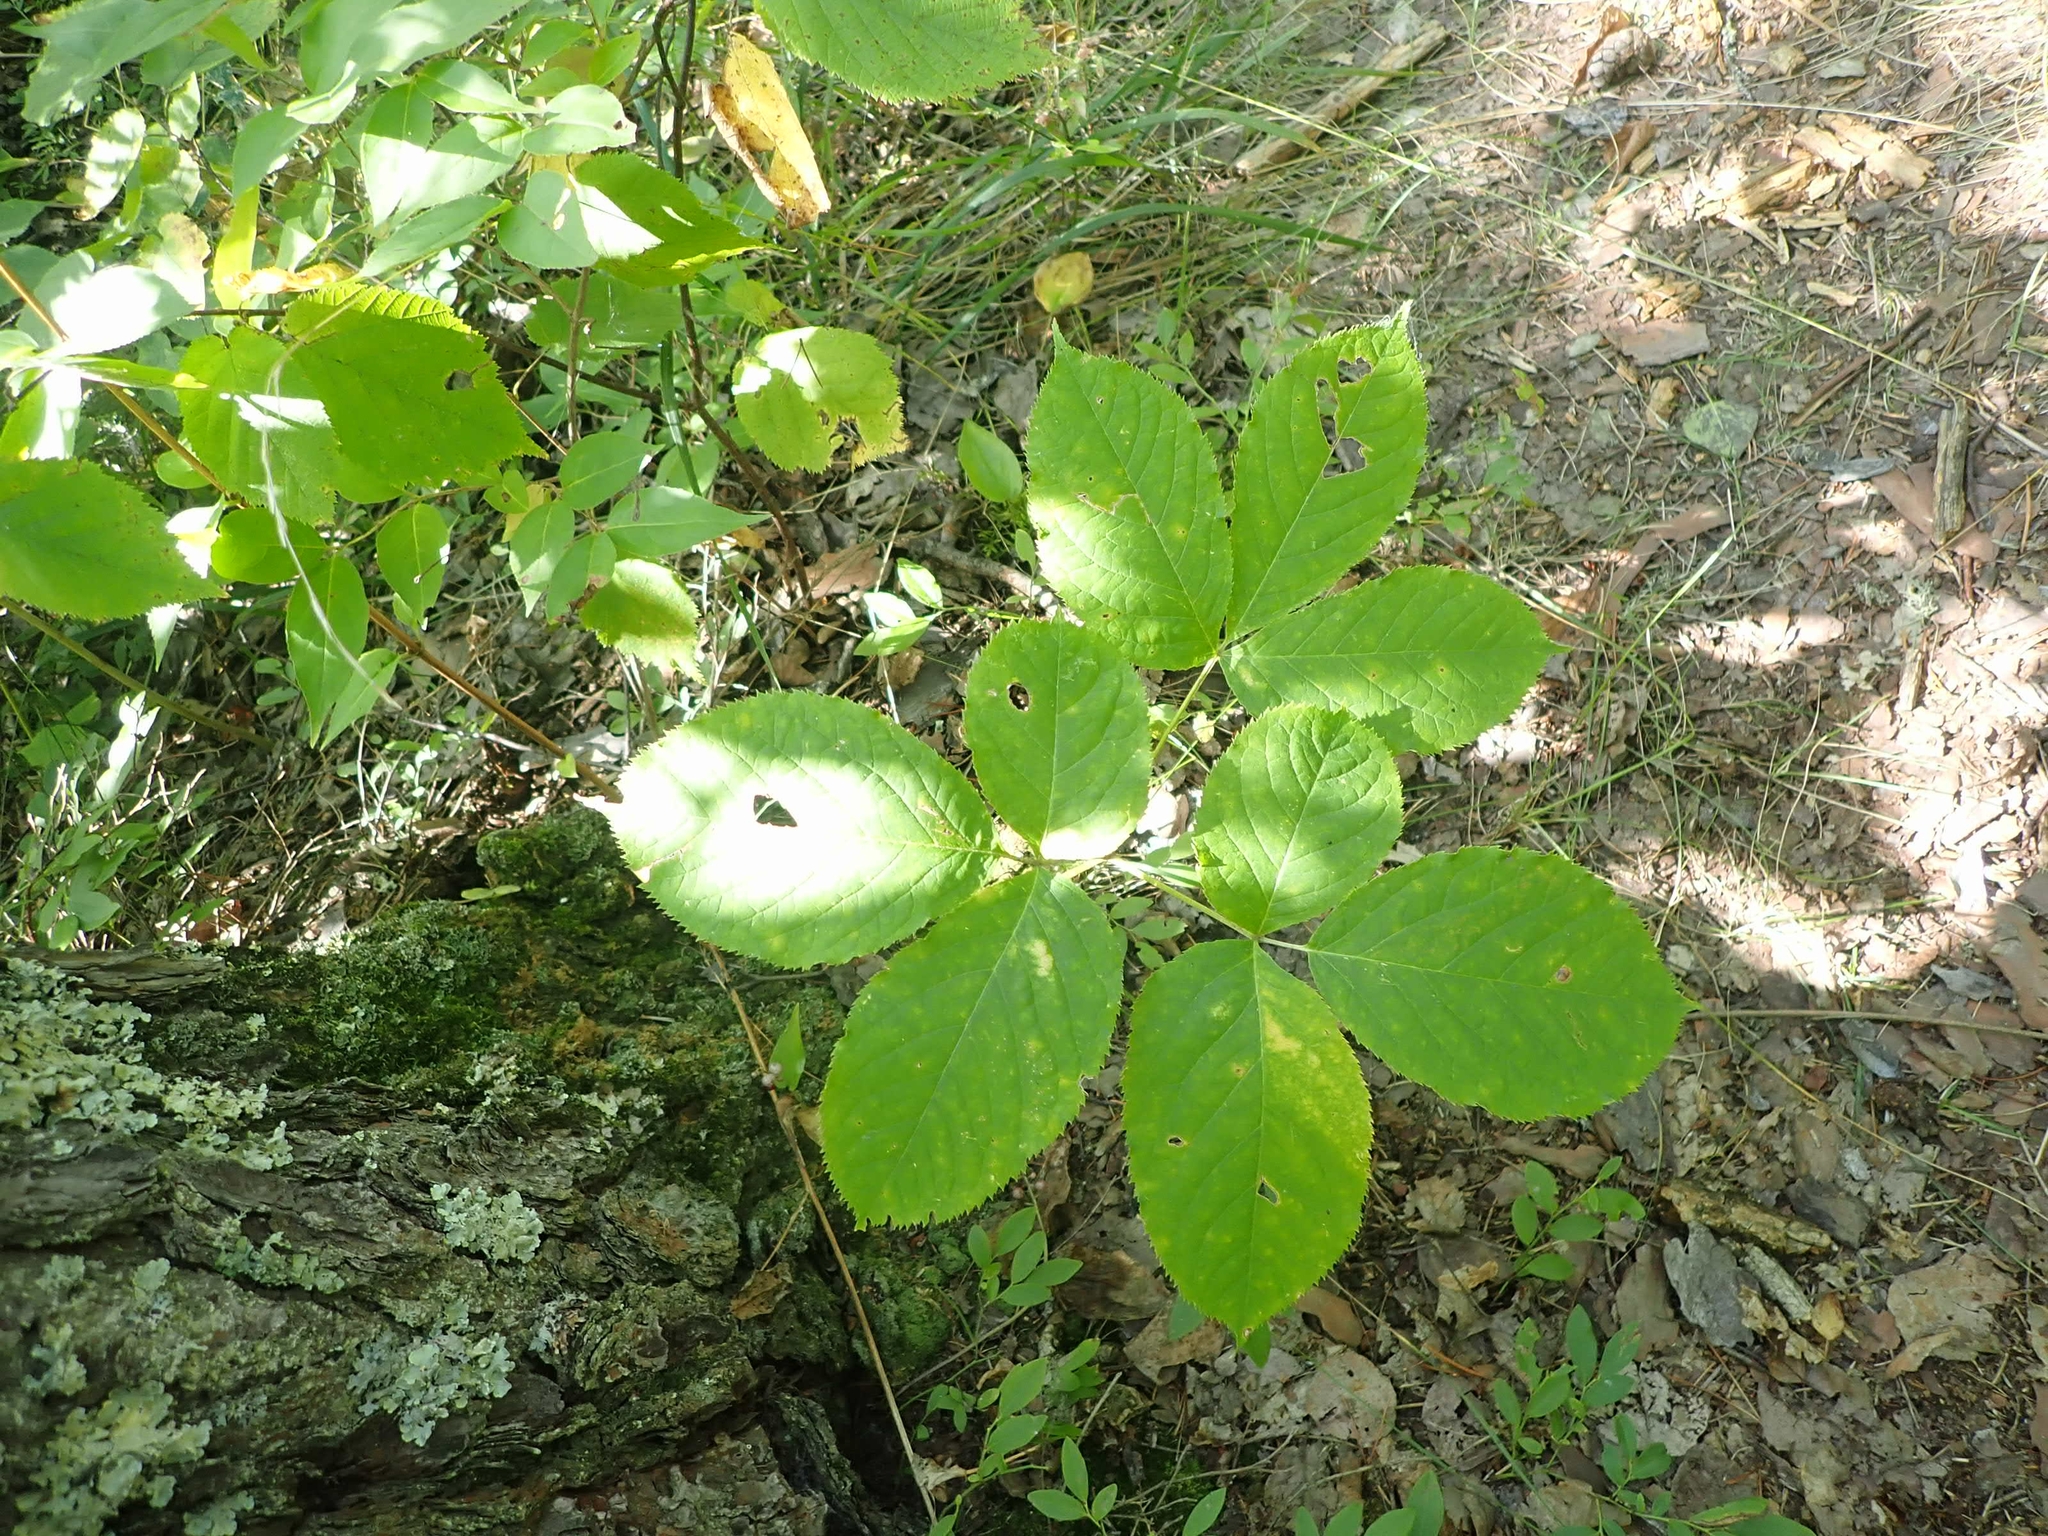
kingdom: Plantae
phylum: Tracheophyta
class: Magnoliopsida
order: Apiales
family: Araliaceae
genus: Aralia
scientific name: Aralia nudicaulis
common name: Wild sarsaparilla
